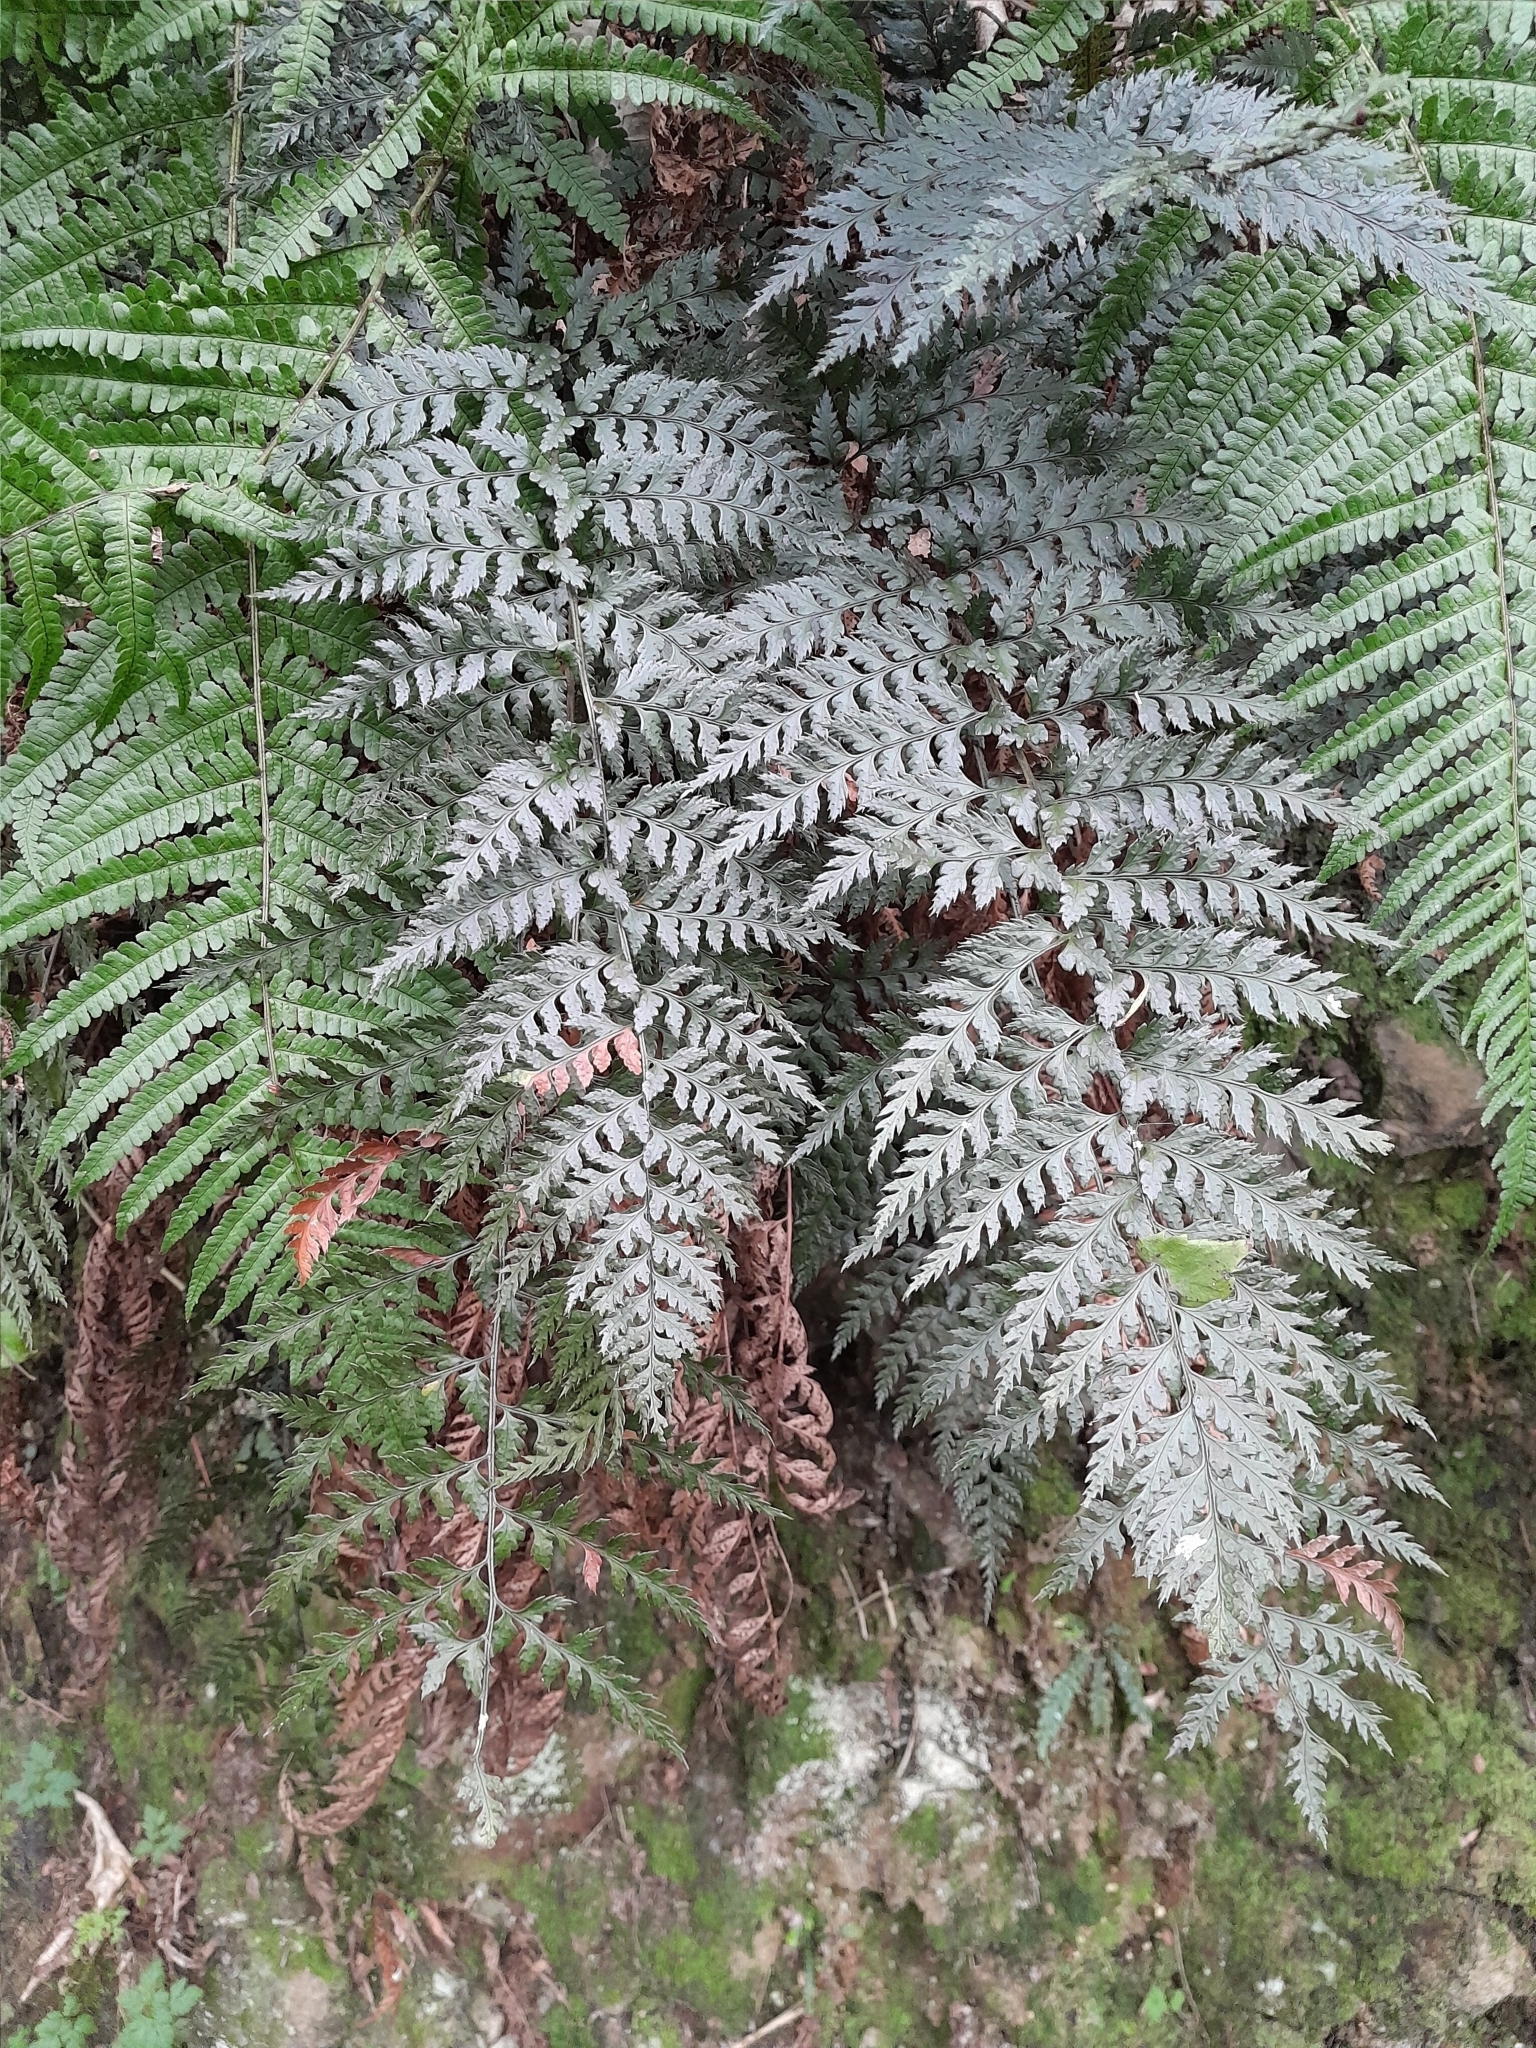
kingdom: Plantae
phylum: Tracheophyta
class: Polypodiopsida
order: Polypodiales
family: Dryopteridaceae
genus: Polystichum
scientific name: Polystichum neozelandicum
